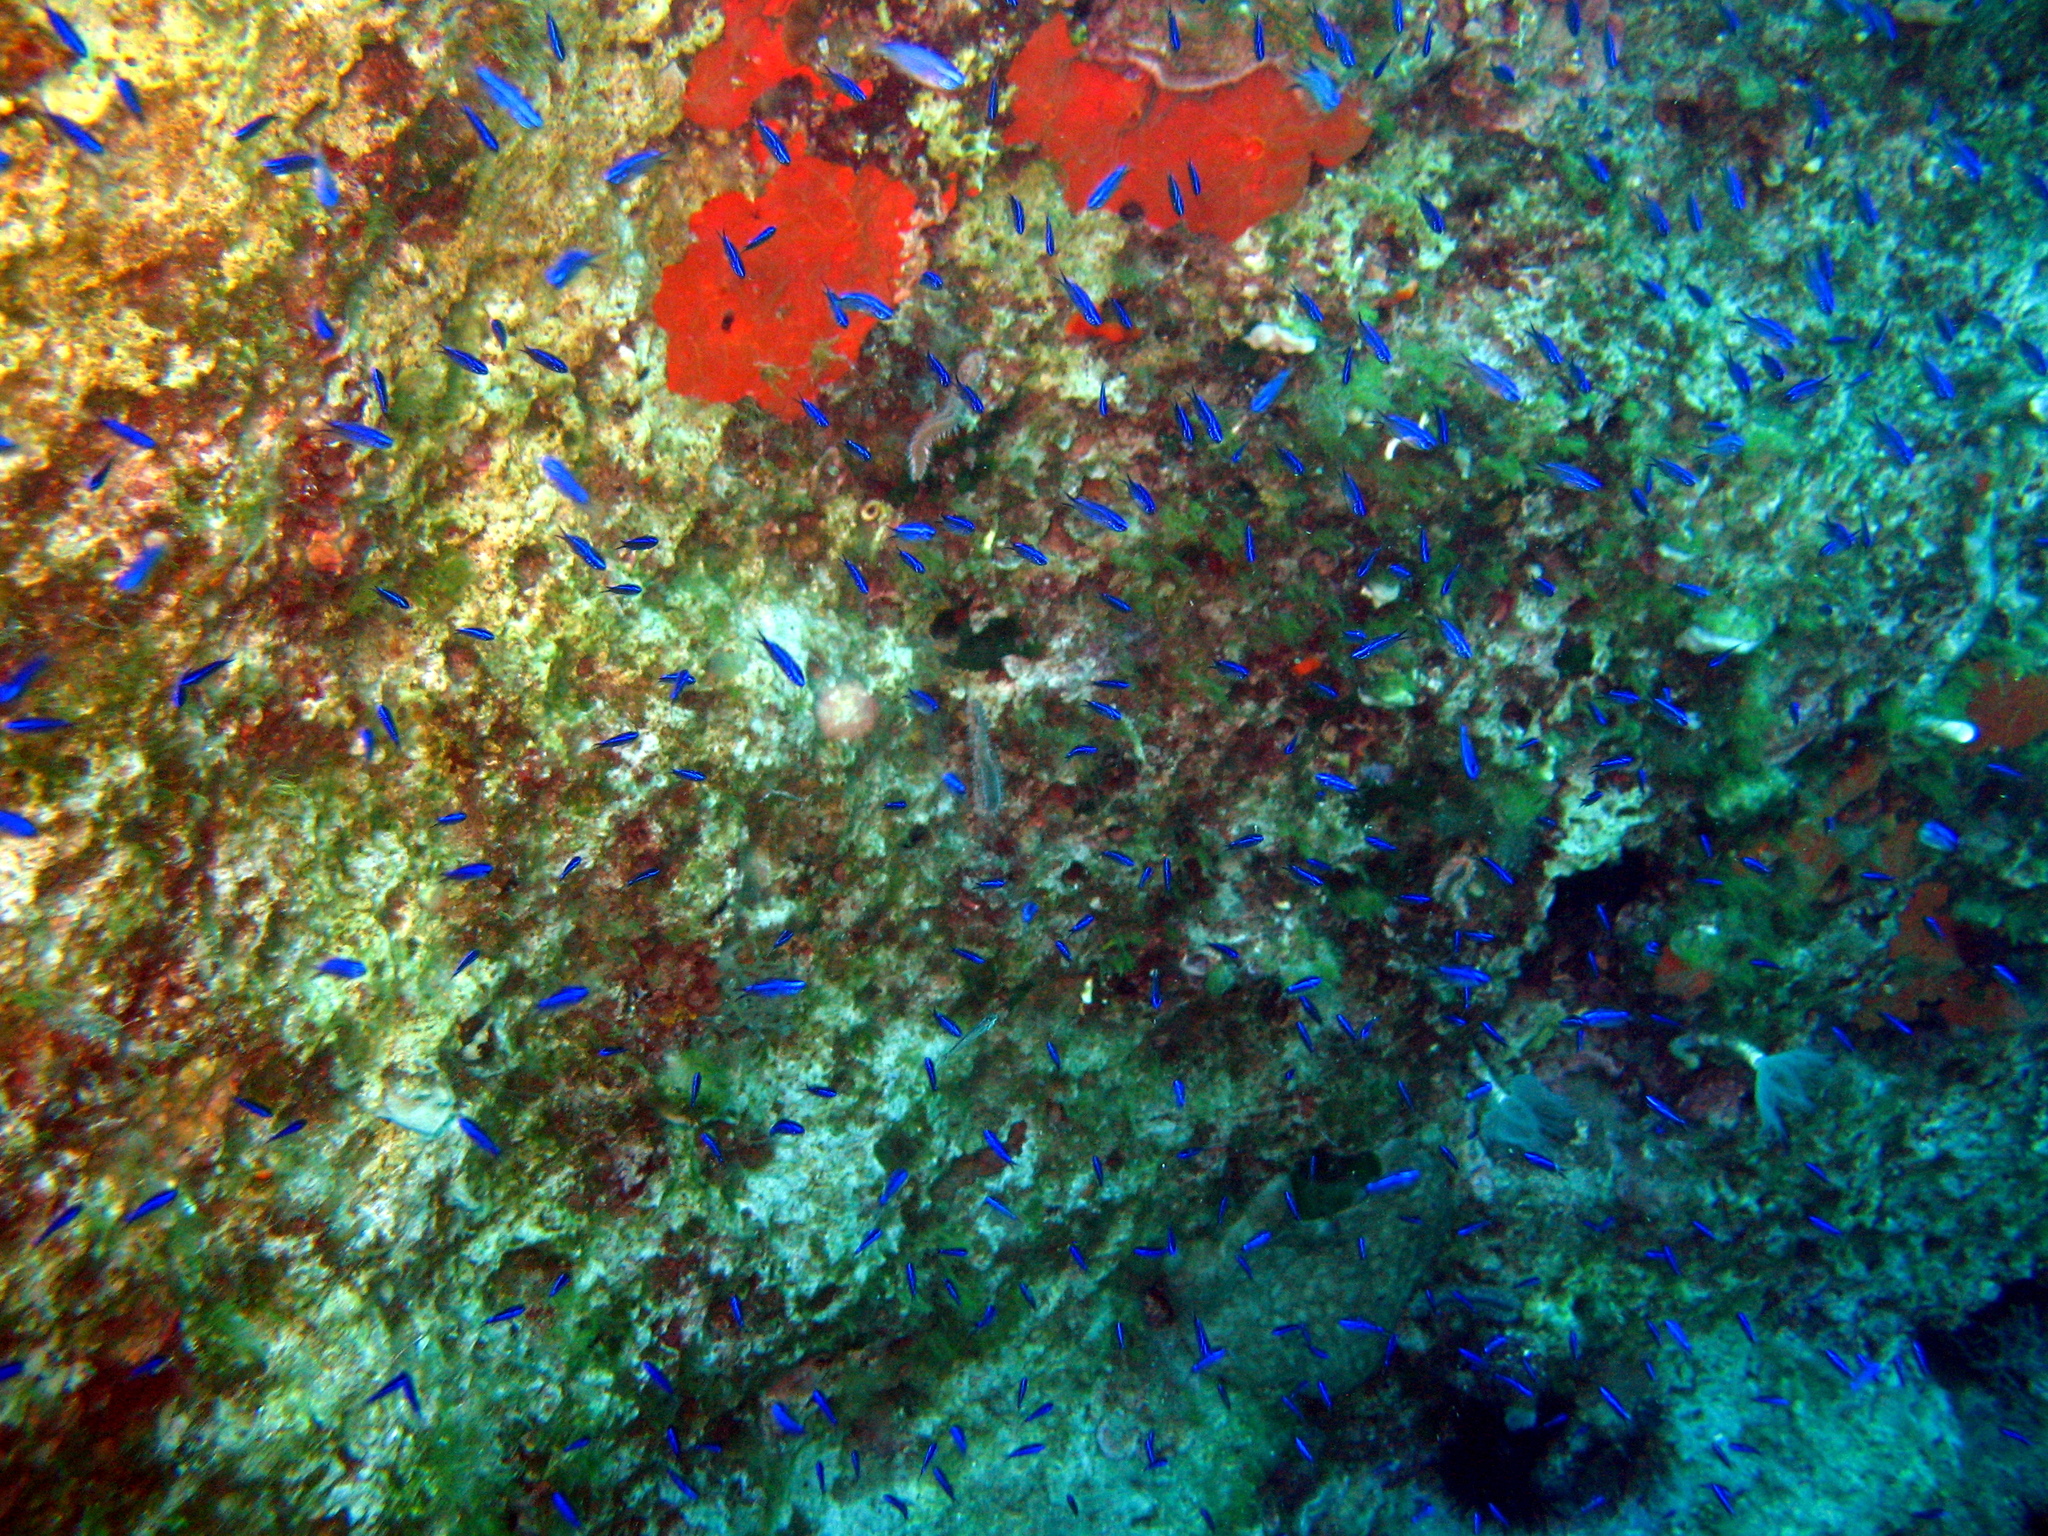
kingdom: Animalia
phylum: Chordata
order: Perciformes
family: Pomacentridae
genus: Chromis
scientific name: Chromis chromis
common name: Damselfish
